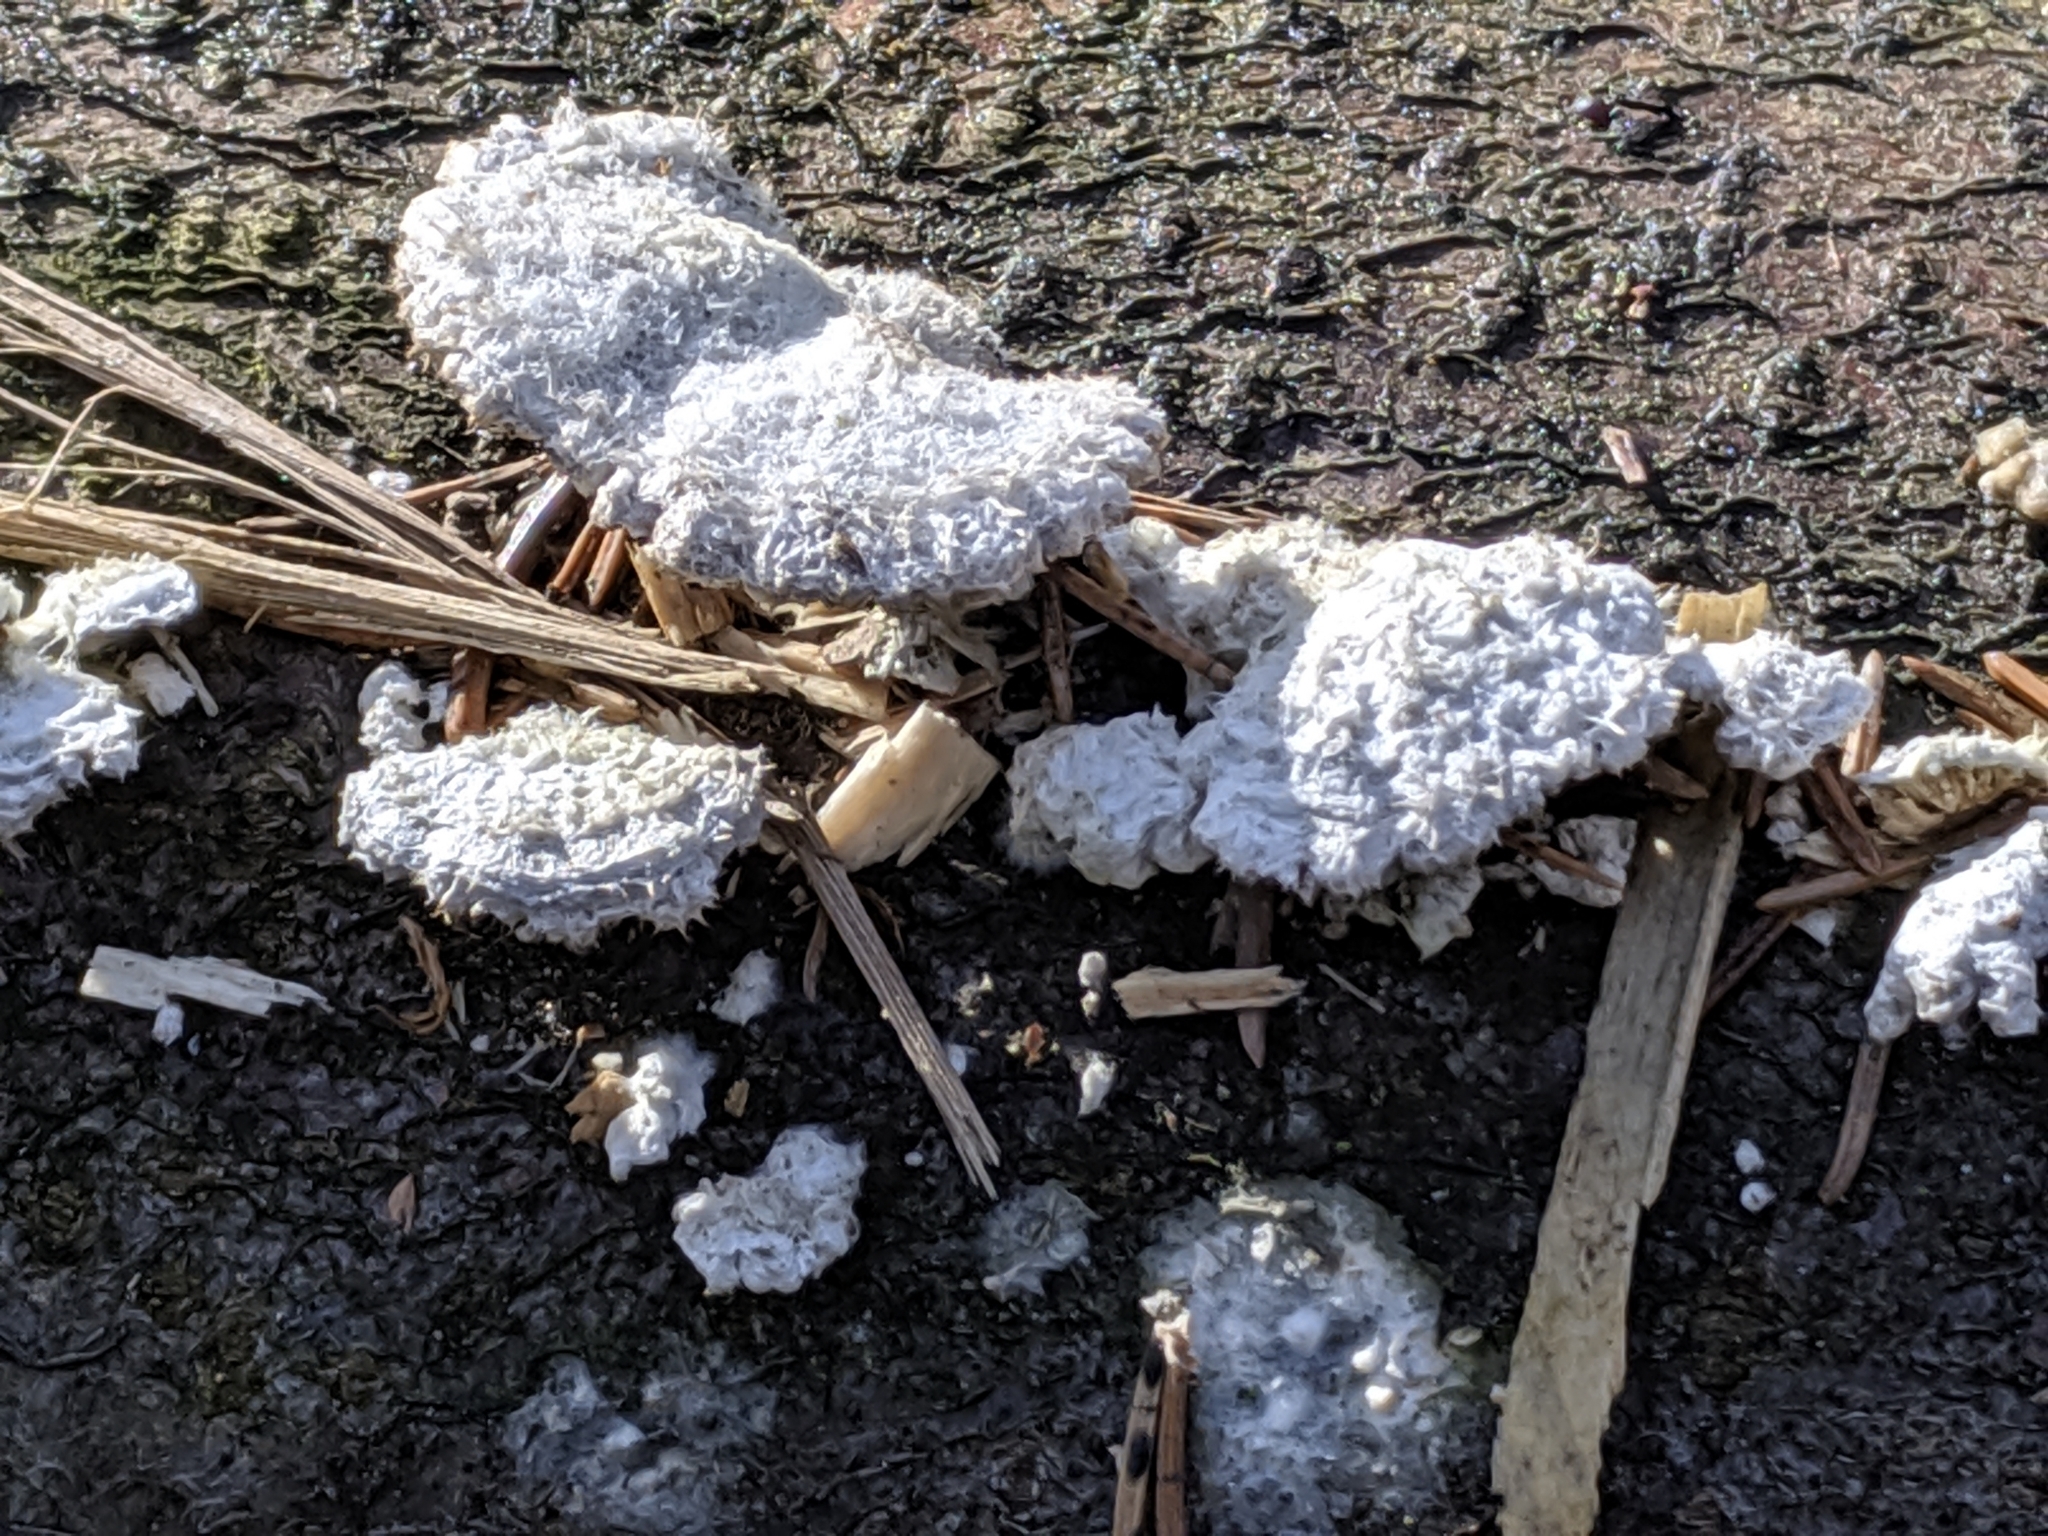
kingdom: Fungi
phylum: Basidiomycota
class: Agaricomycetes
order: Agaricales
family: Schizophyllaceae
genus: Schizophyllum
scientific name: Schizophyllum commune
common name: Common porecrust
